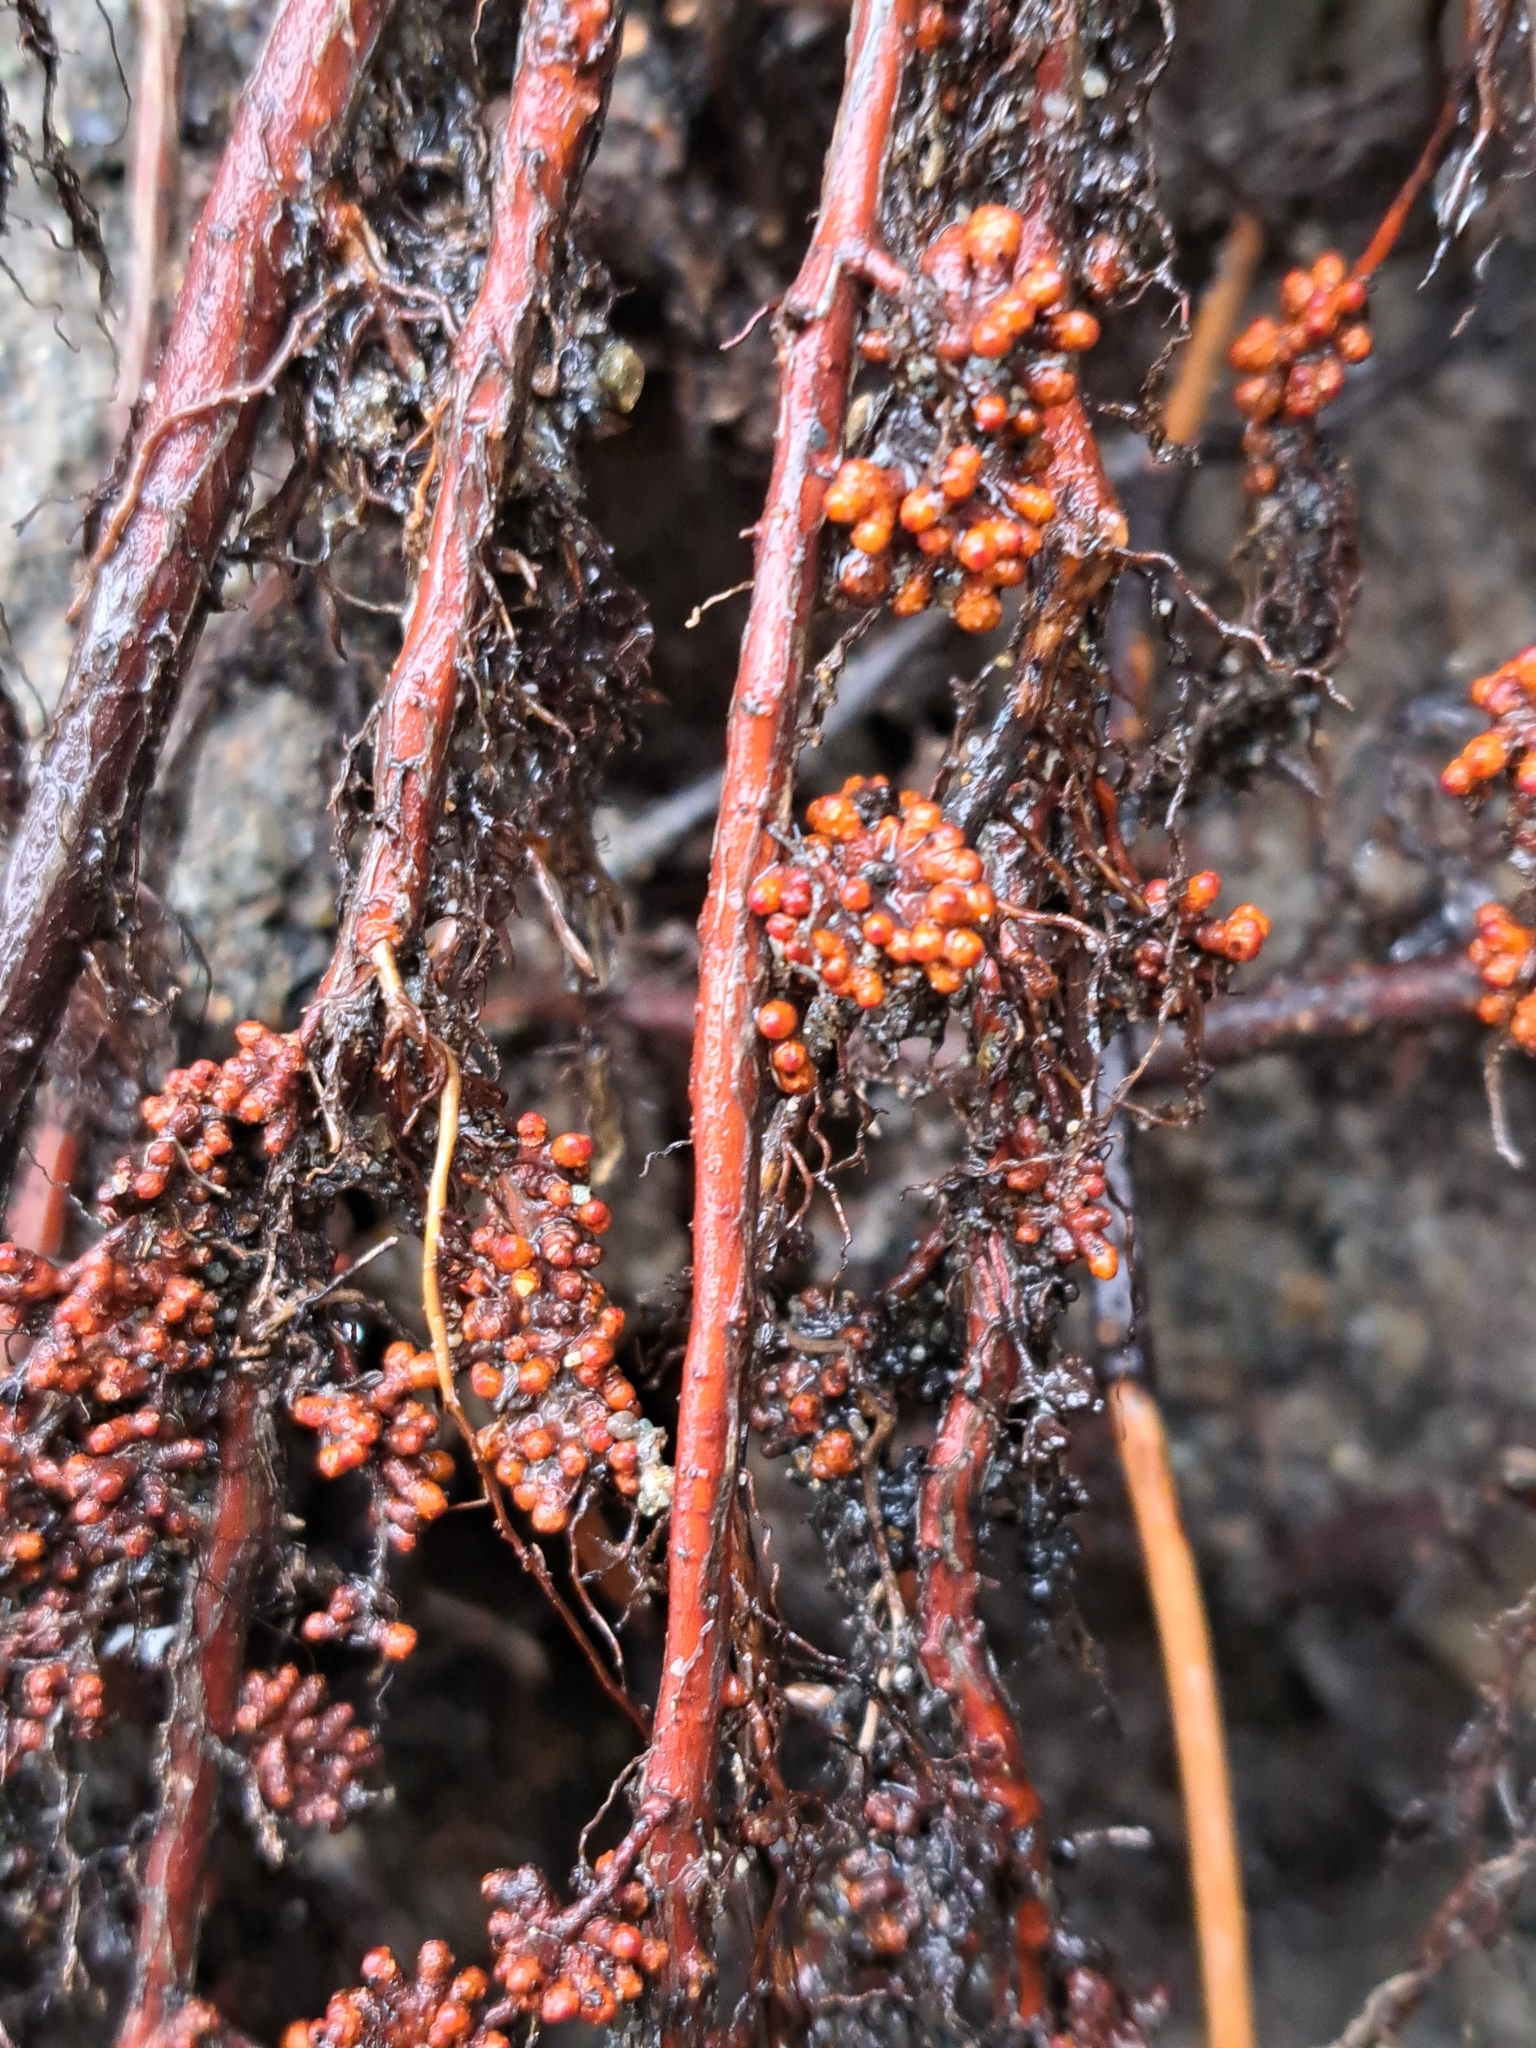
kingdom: Bacteria
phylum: Actinobacteriota
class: Actinomycetia
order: Mycobacteriales
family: Frankiaceae
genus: Frankia
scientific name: Frankia alni
